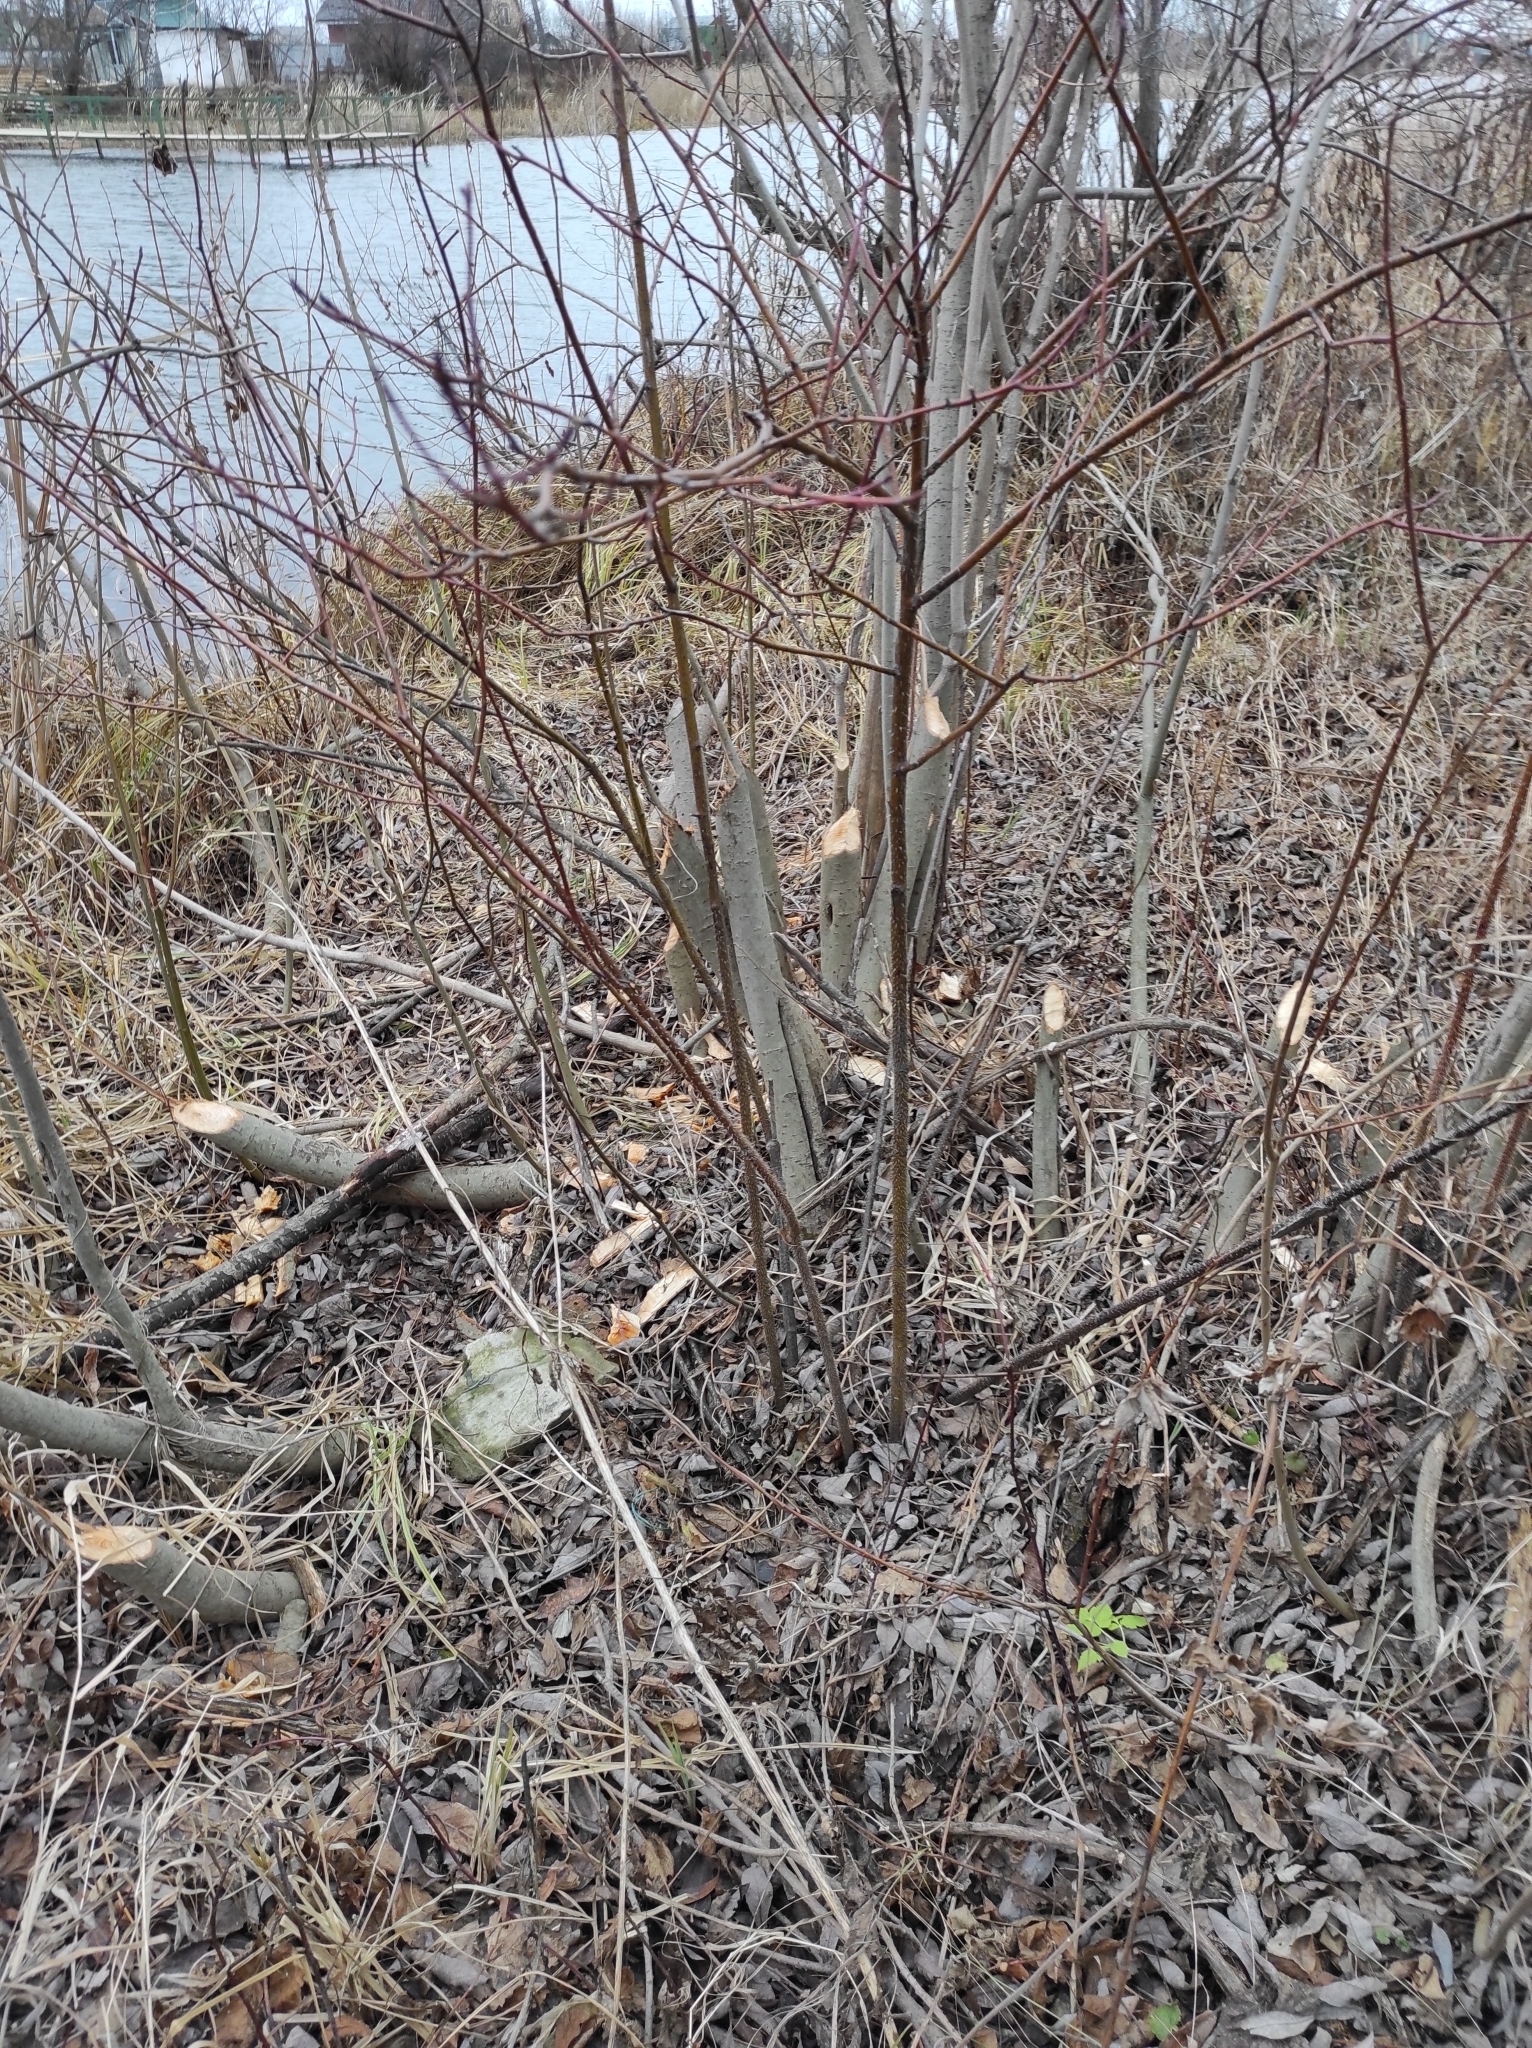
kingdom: Animalia
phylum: Chordata
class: Mammalia
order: Rodentia
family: Castoridae
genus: Castor
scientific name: Castor fiber
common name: Eurasian beaver
